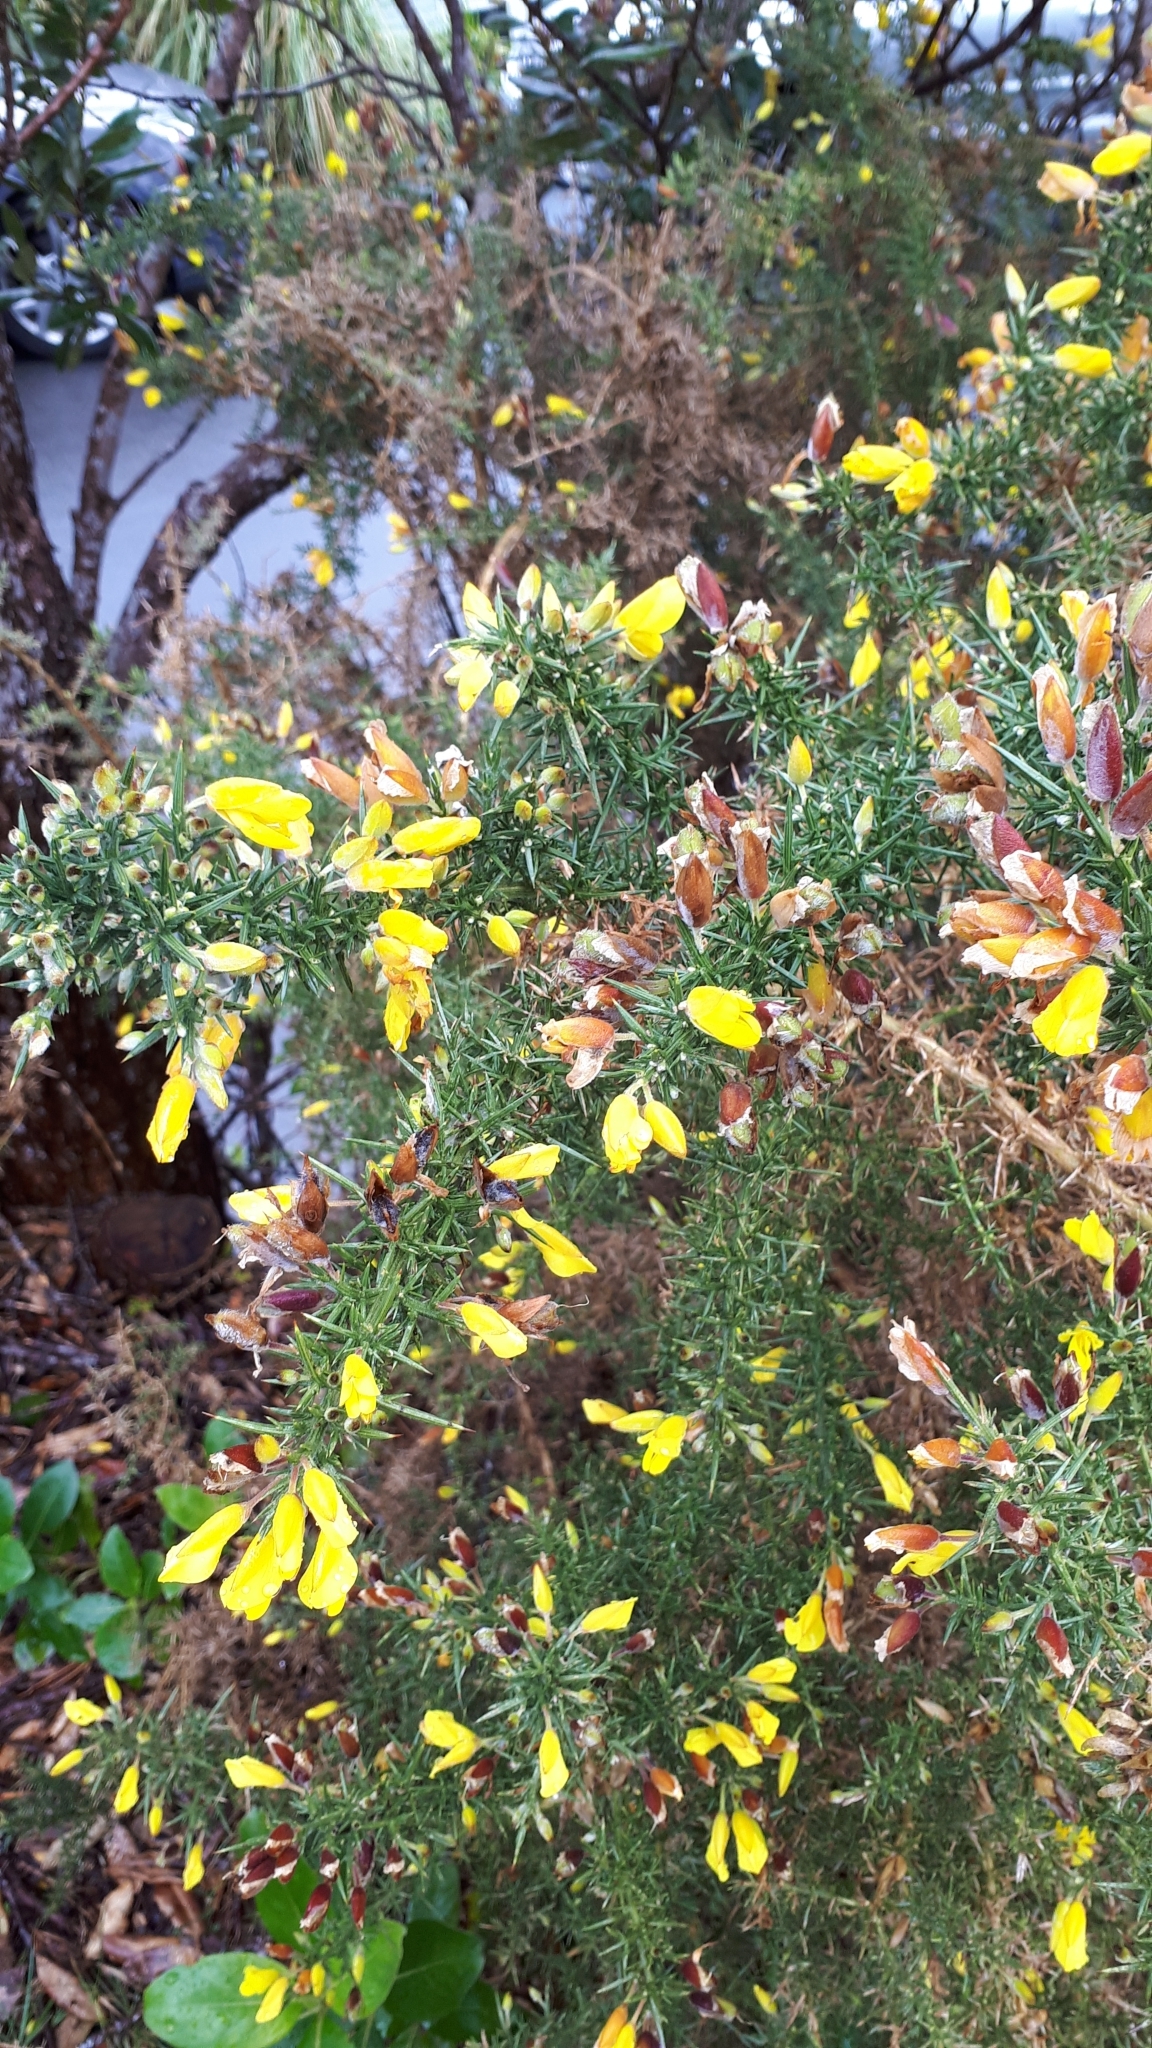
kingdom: Plantae
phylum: Tracheophyta
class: Magnoliopsida
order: Fabales
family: Fabaceae
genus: Ulex
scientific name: Ulex europaeus
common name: Common gorse
